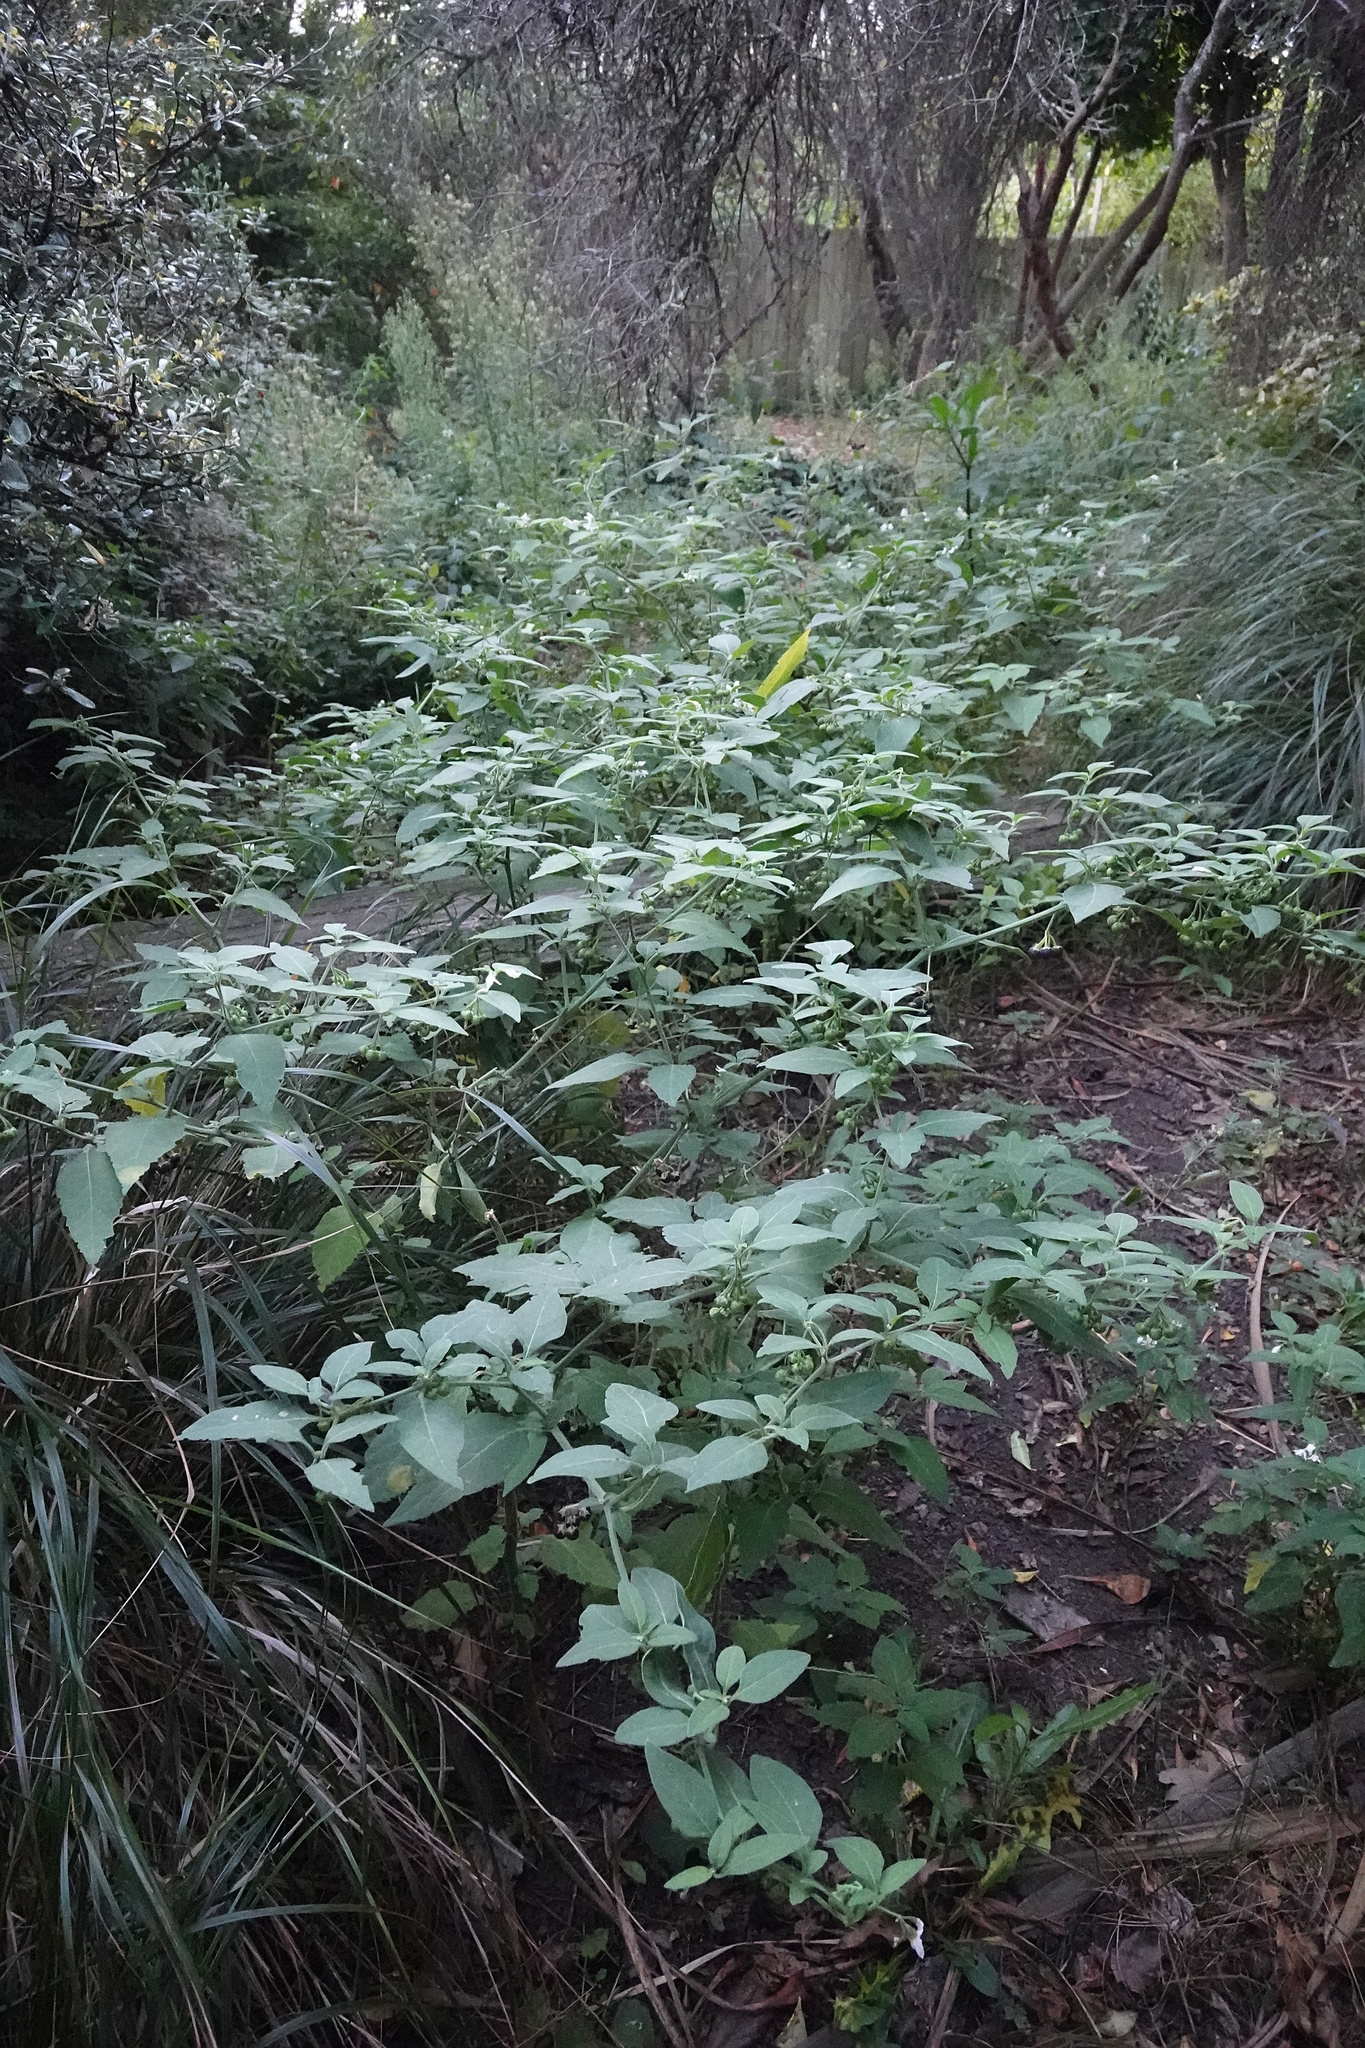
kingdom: Plantae
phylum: Tracheophyta
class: Magnoliopsida
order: Solanales
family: Solanaceae
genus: Solanum
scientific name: Solanum chenopodioides
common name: Tall nightshade
